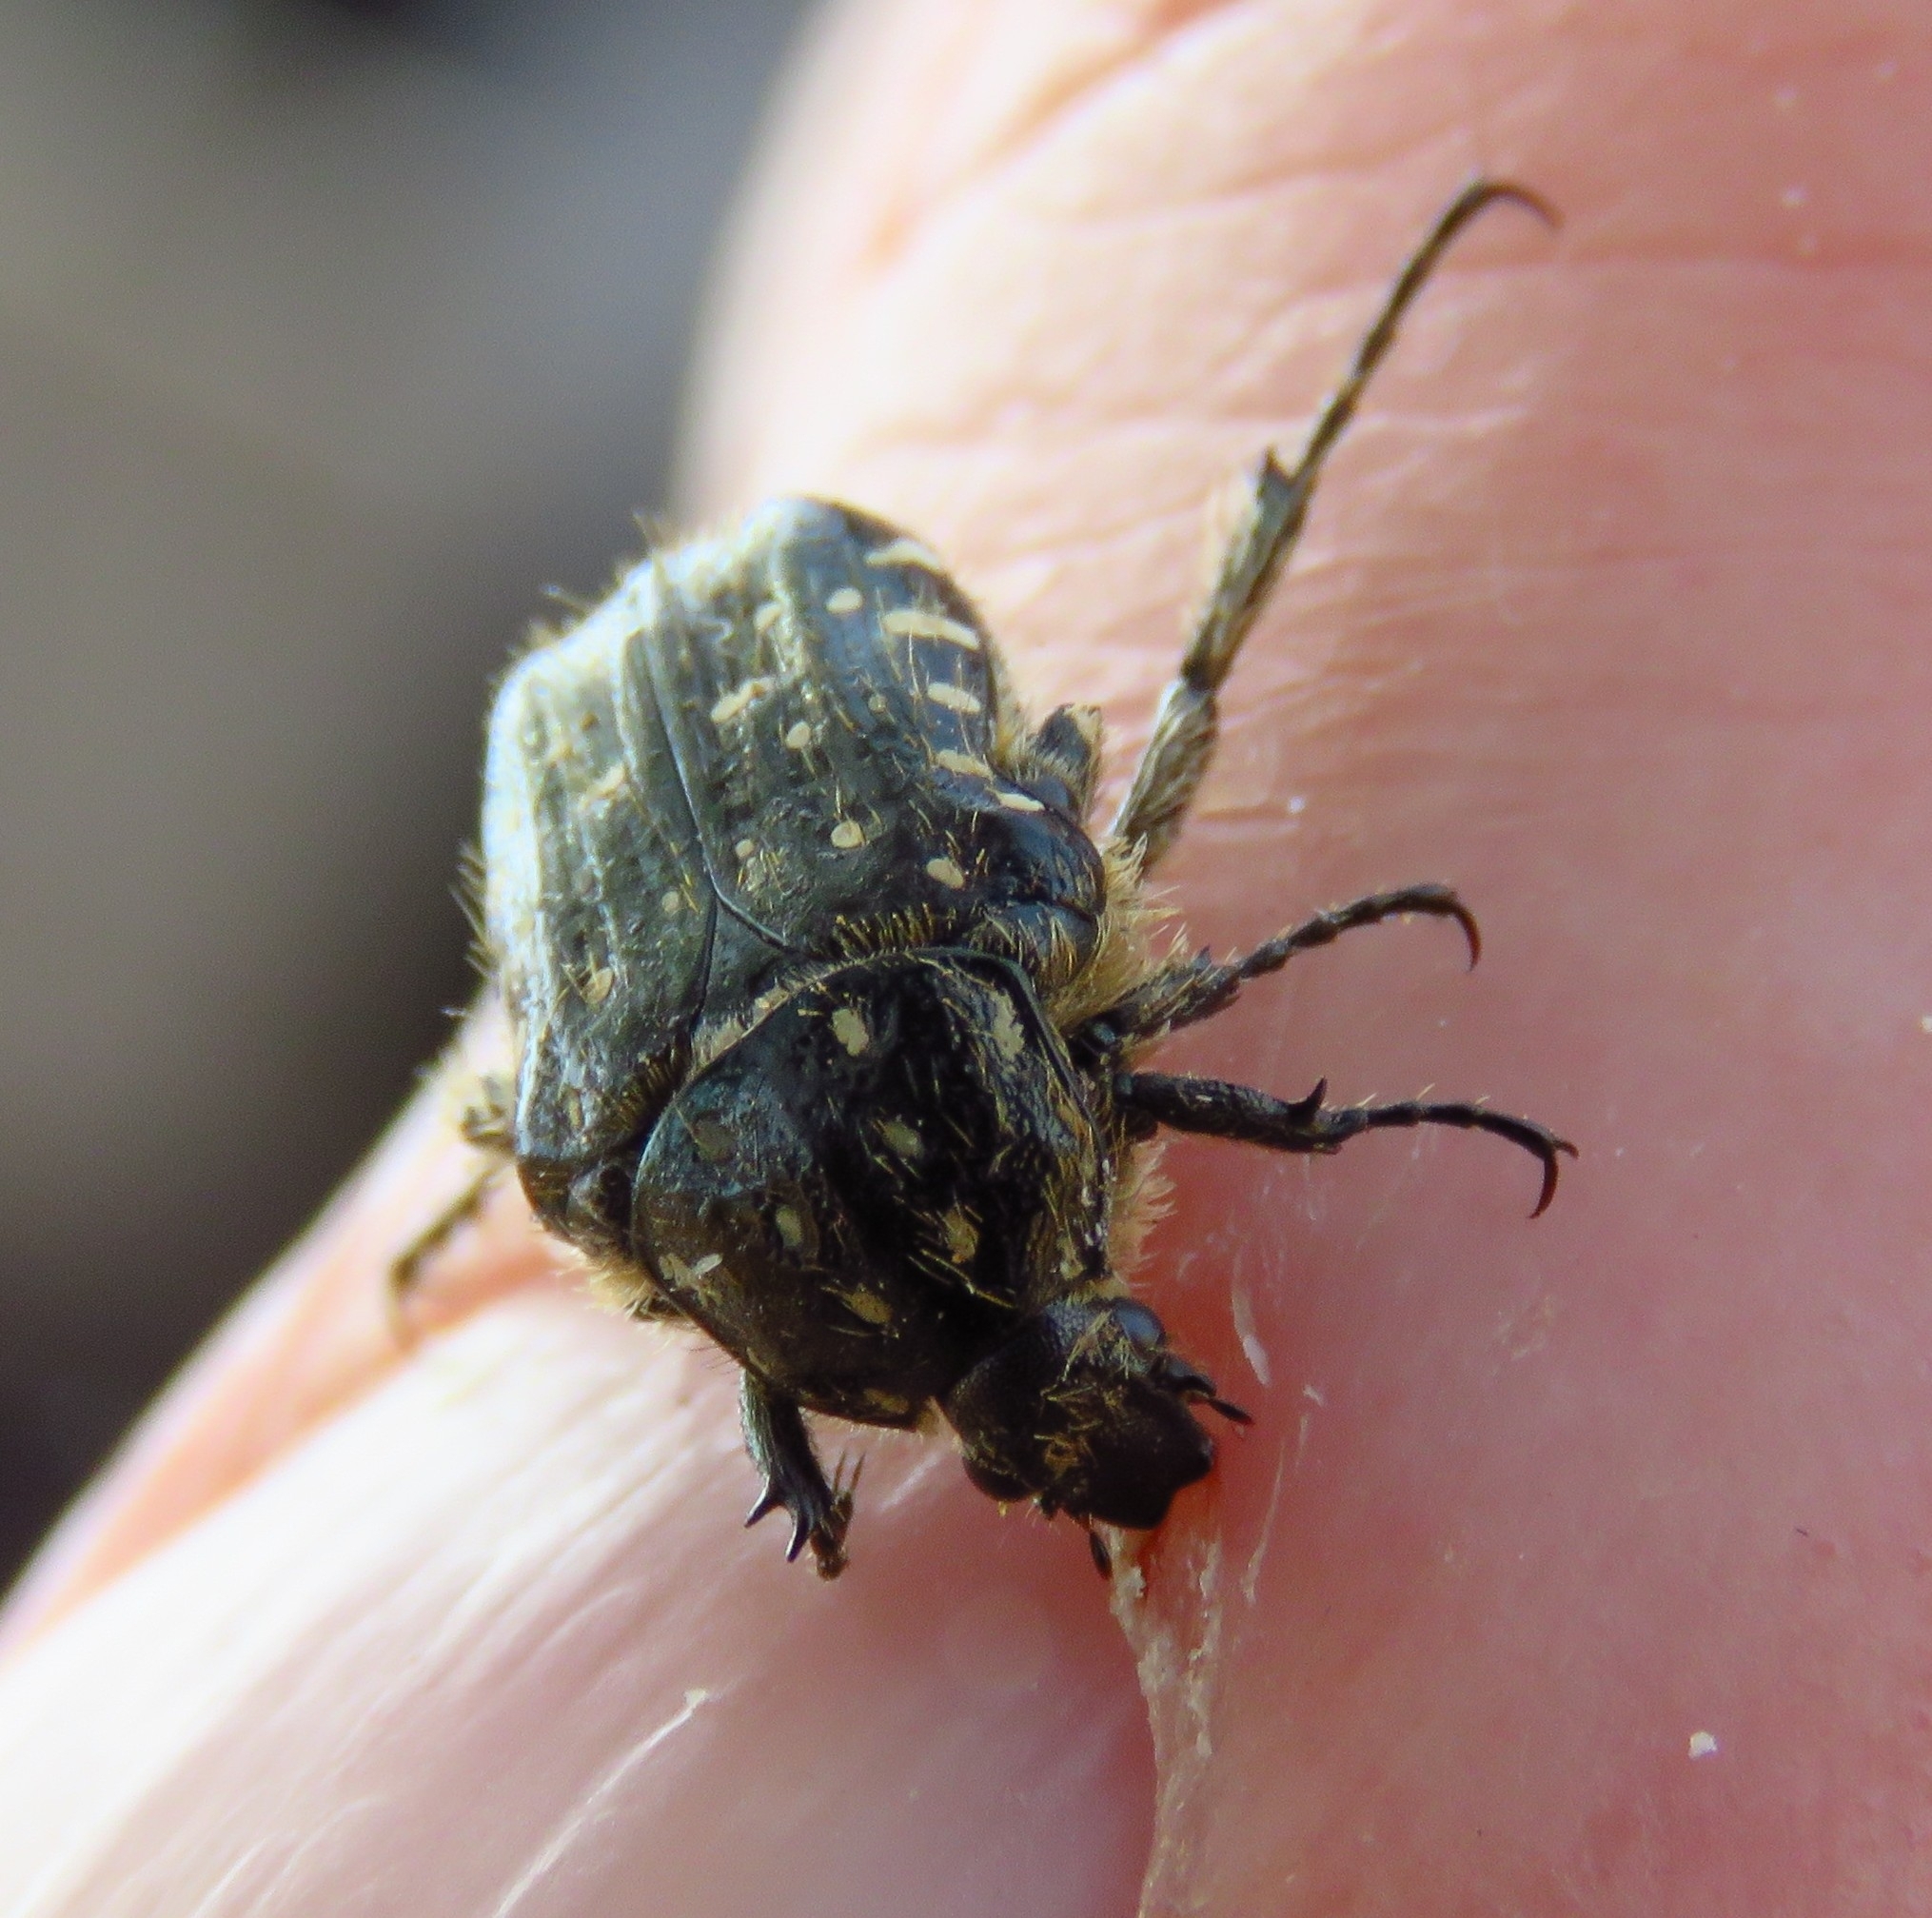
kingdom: Animalia
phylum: Arthropoda
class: Insecta
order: Coleoptera
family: Scarabaeidae
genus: Oxythyrea
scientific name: Oxythyrea funesta
